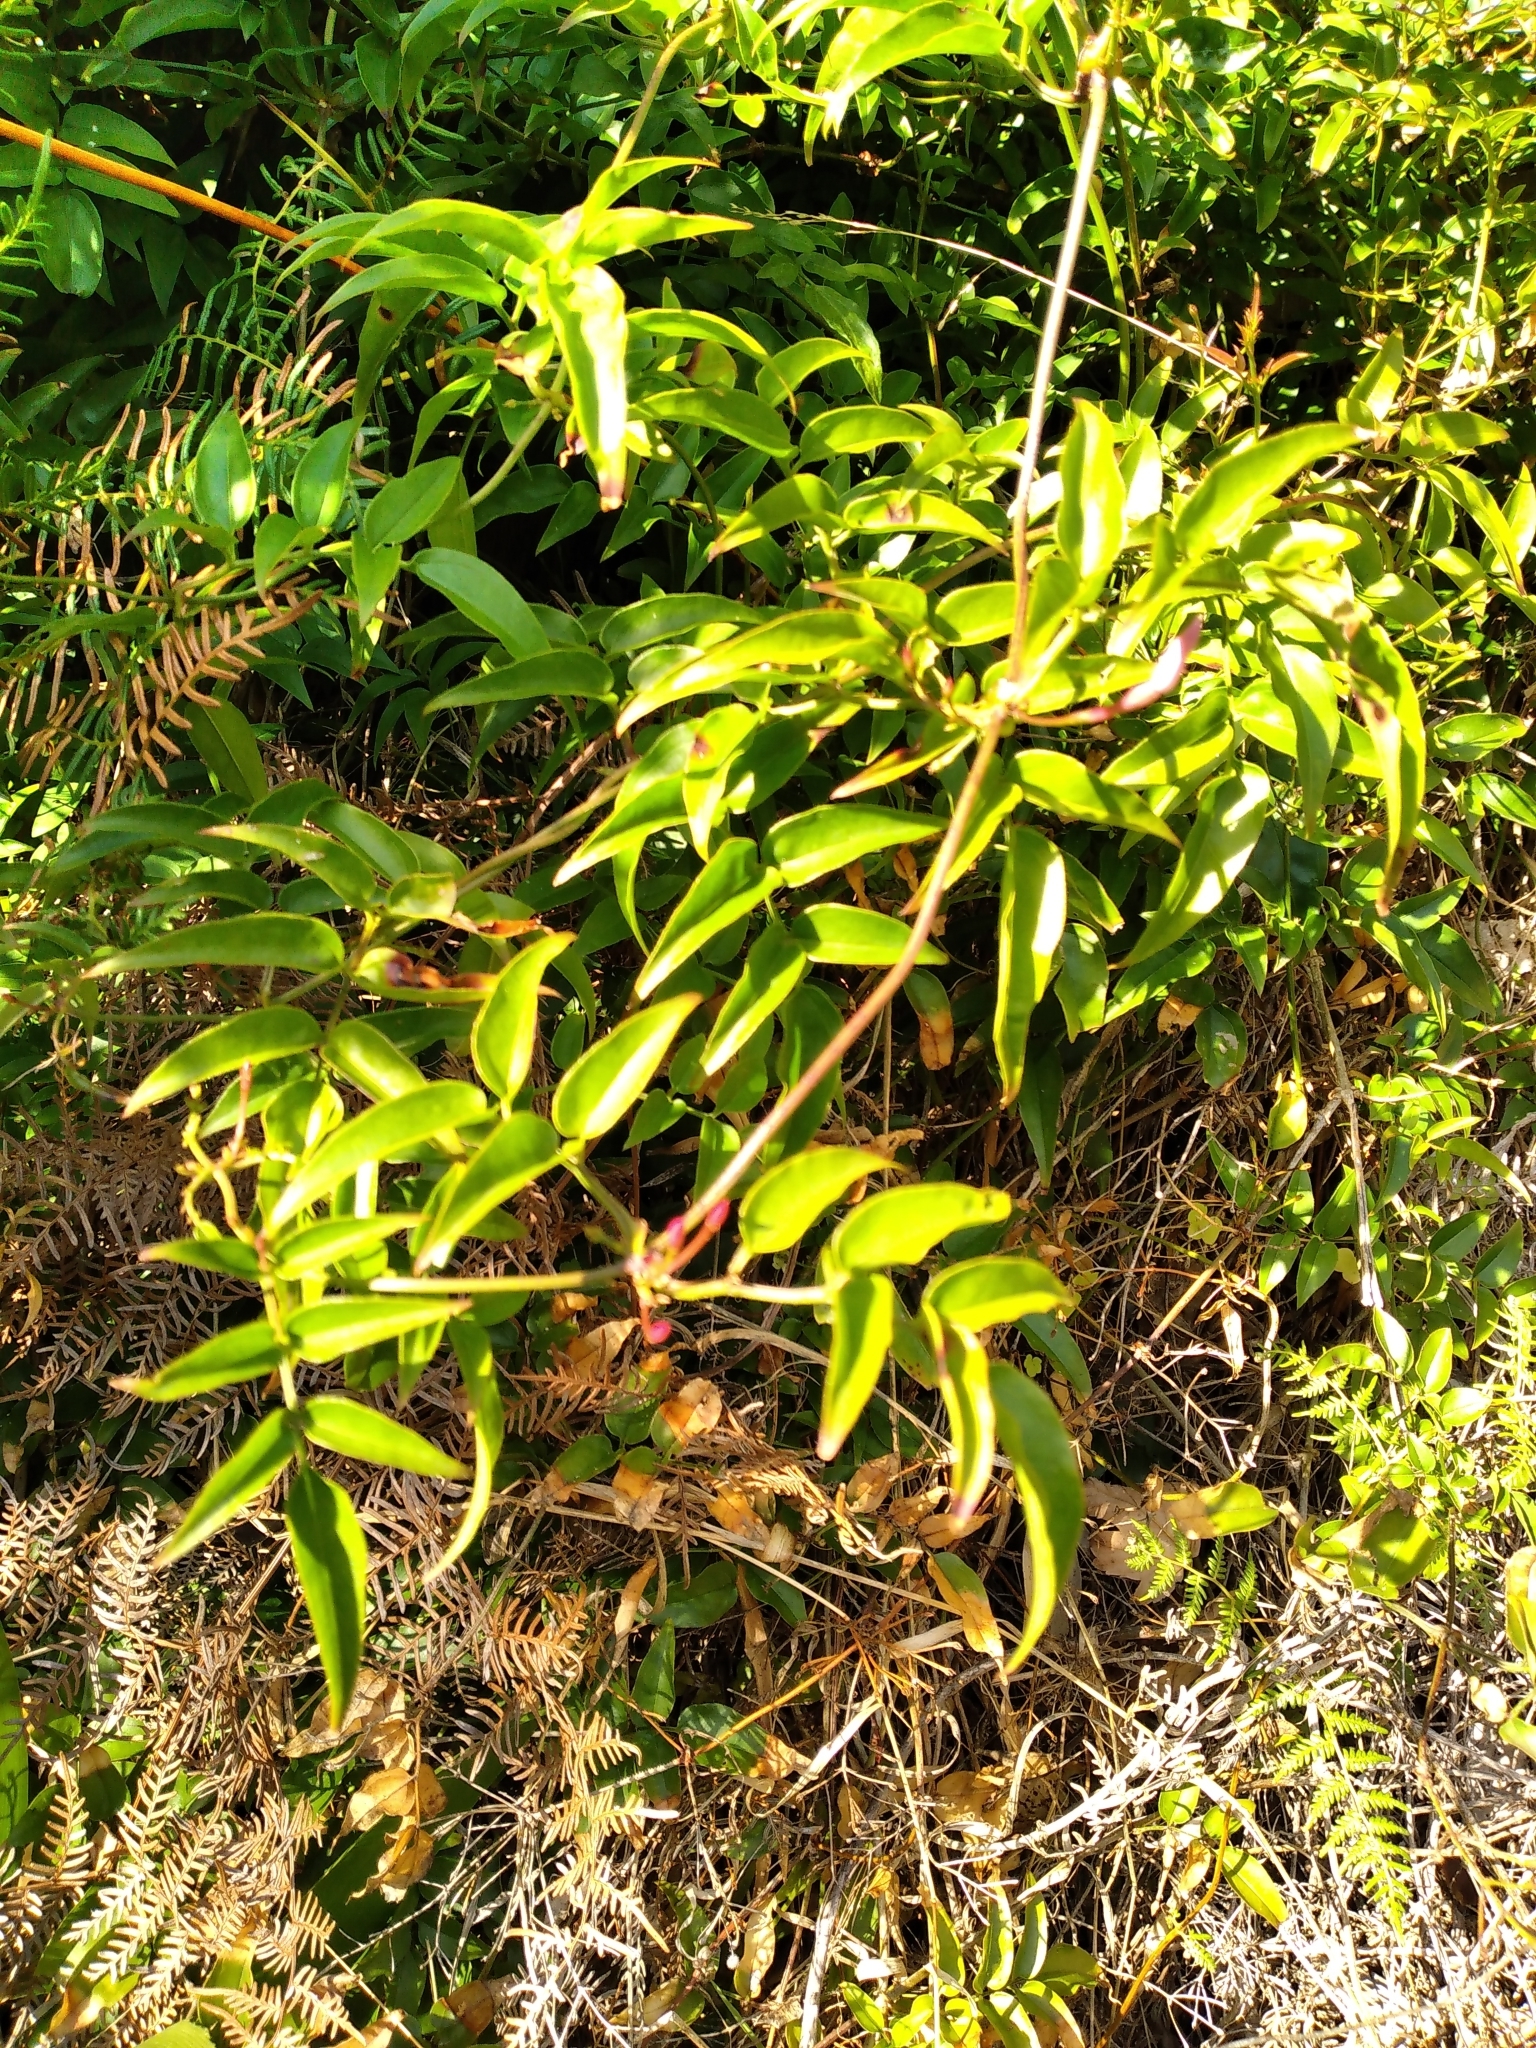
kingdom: Plantae
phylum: Tracheophyta
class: Magnoliopsida
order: Lamiales
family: Oleaceae
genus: Jasminum
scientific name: Jasminum polyanthum
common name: Pink jasmine
